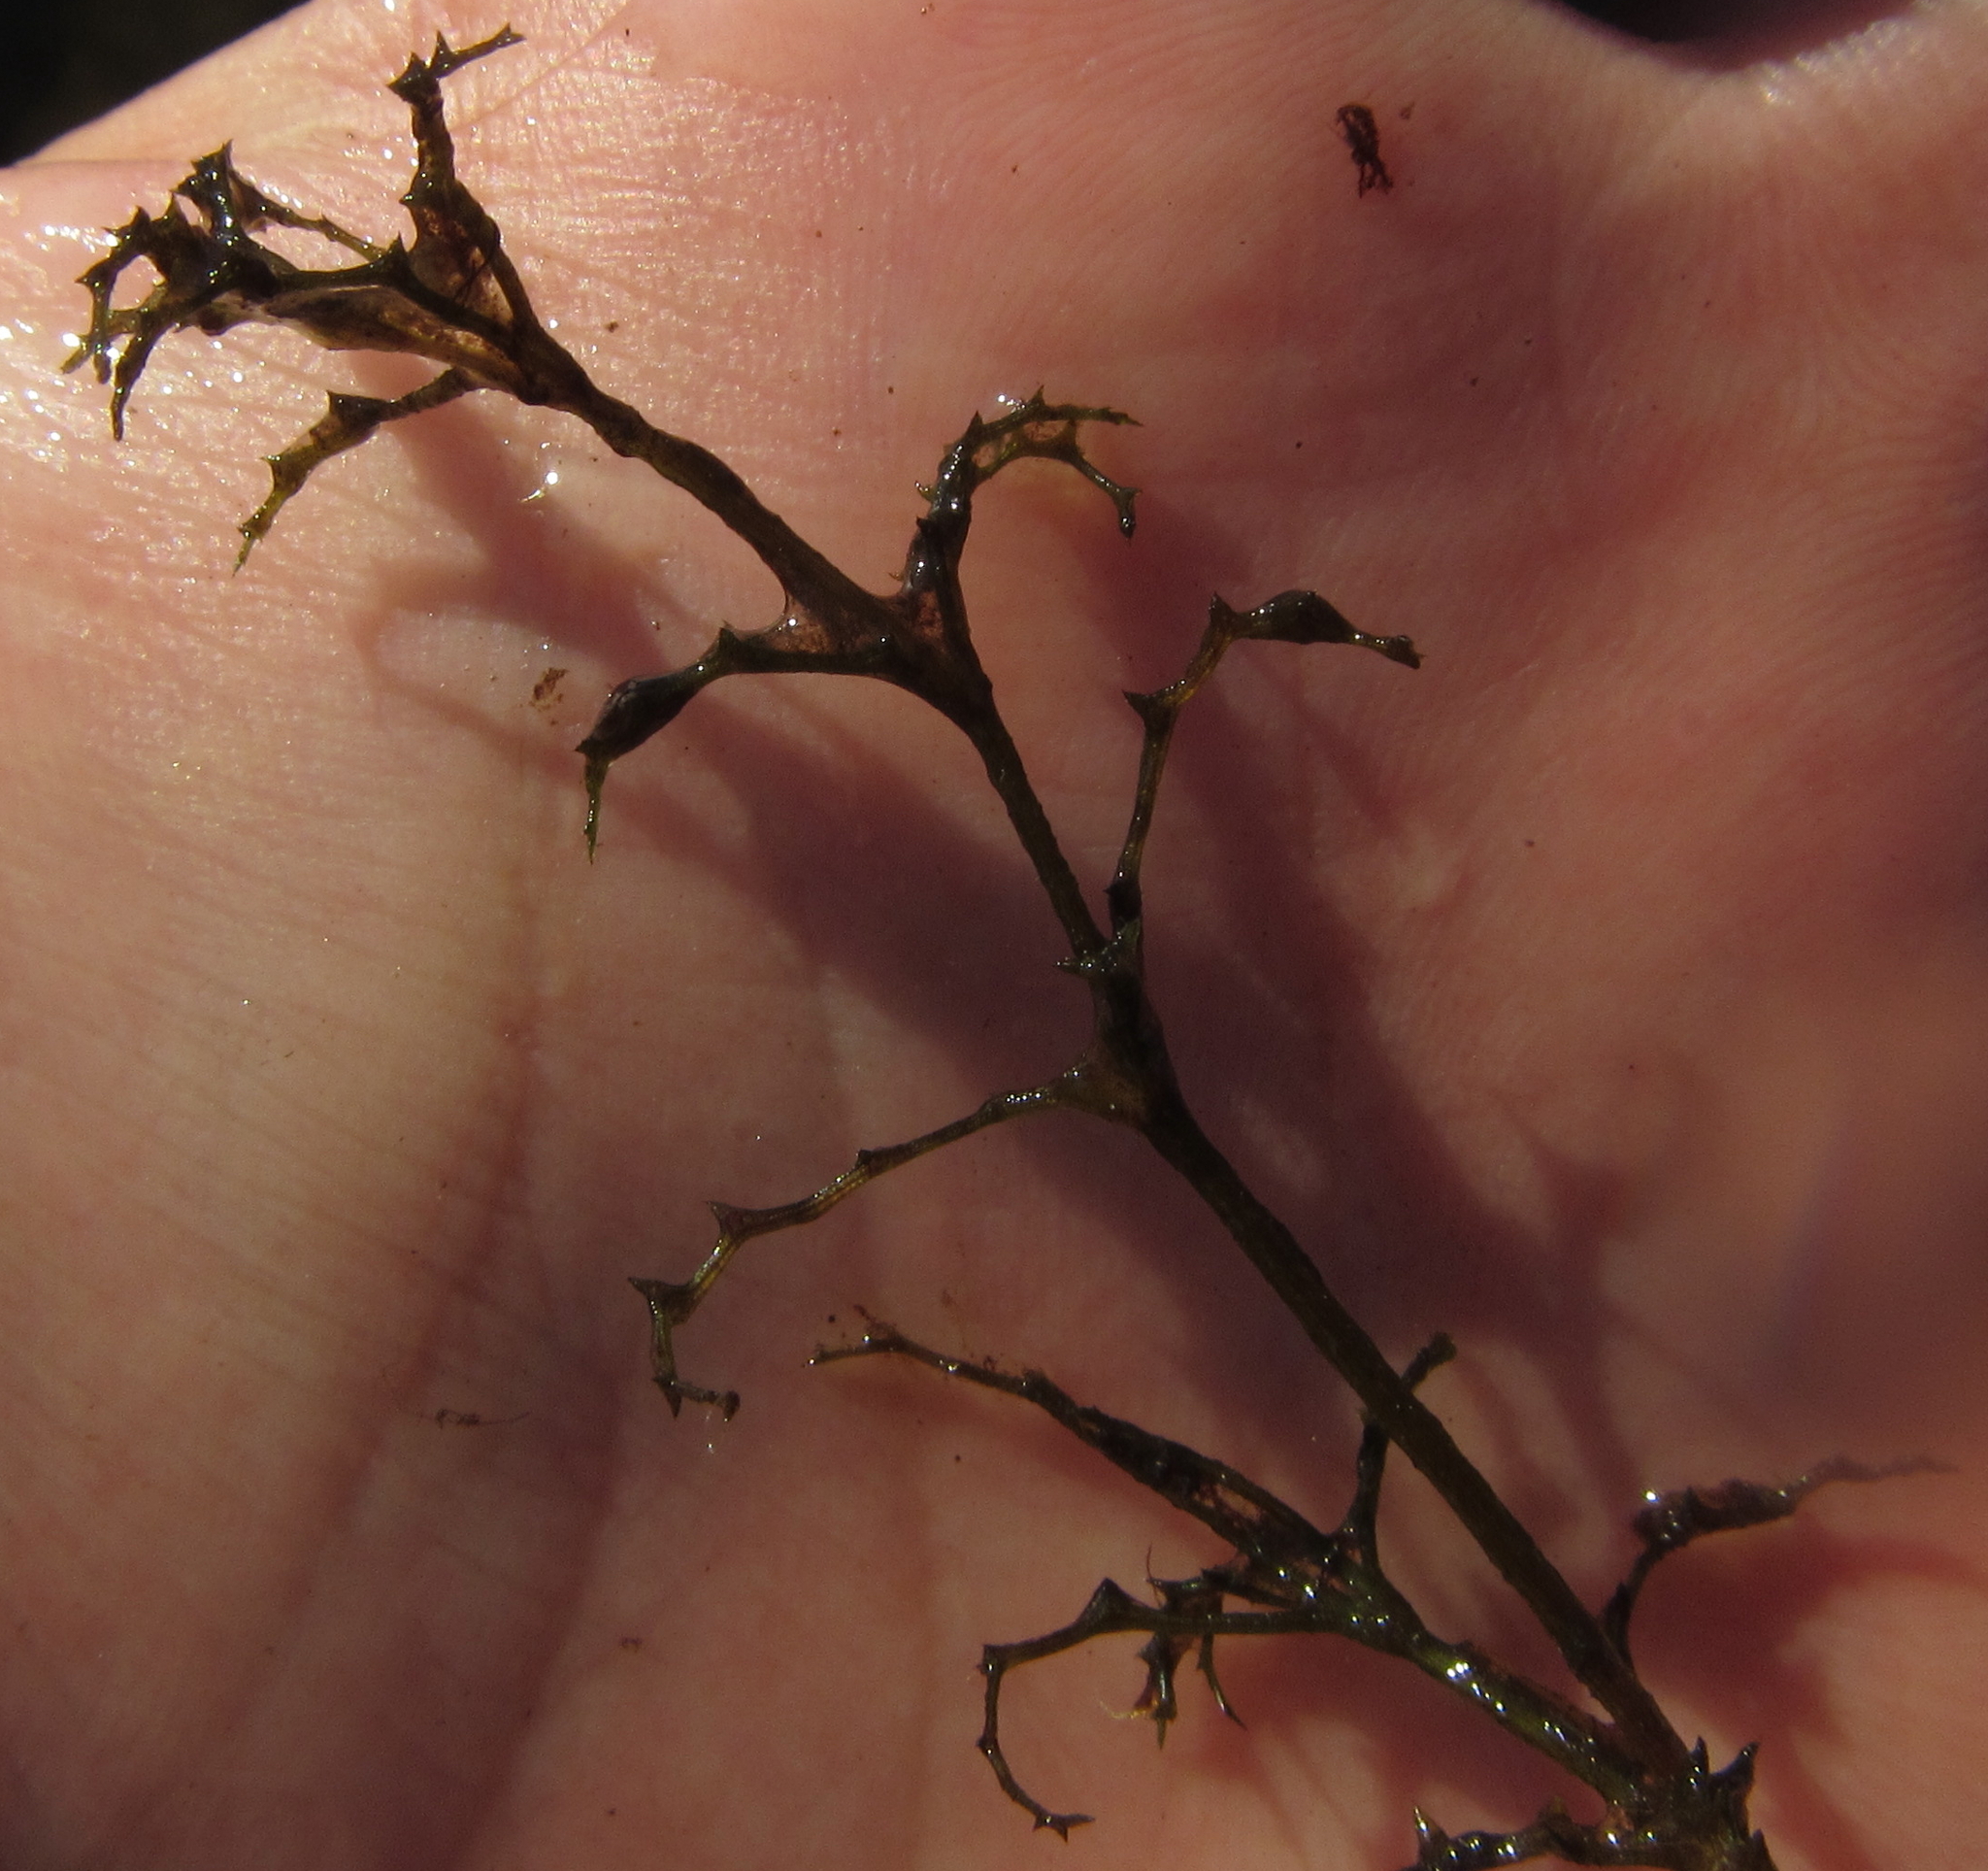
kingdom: Plantae
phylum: Tracheophyta
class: Liliopsida
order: Alismatales
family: Hydrocharitaceae
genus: Najas
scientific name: Najas horrida
